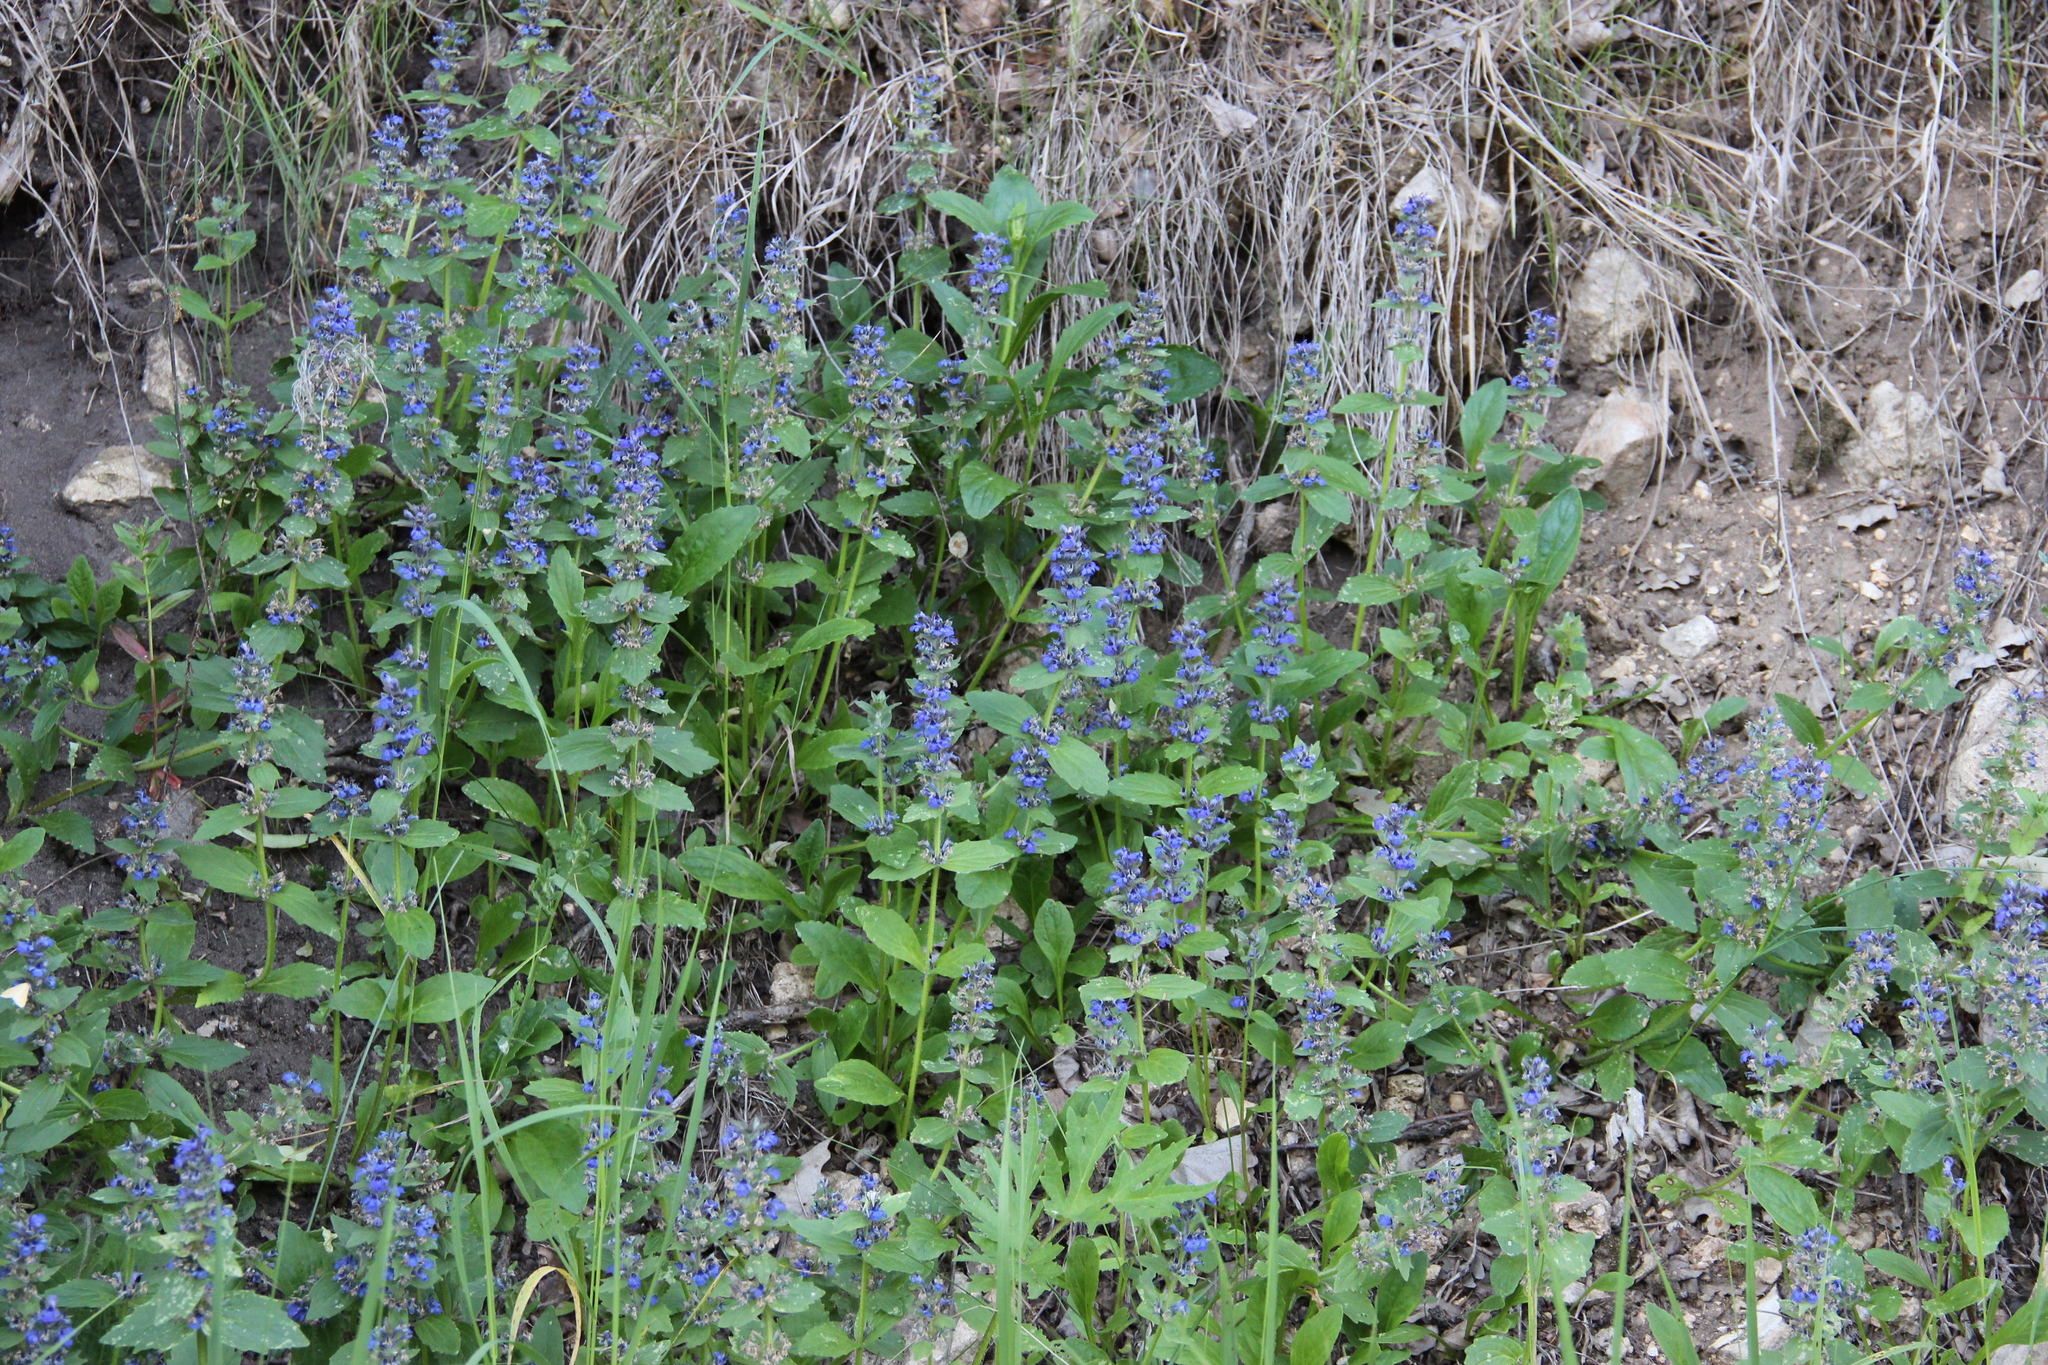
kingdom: Plantae
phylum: Tracheophyta
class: Magnoliopsida
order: Fabales
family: Fabaceae
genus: Galega
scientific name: Galega orientalis
